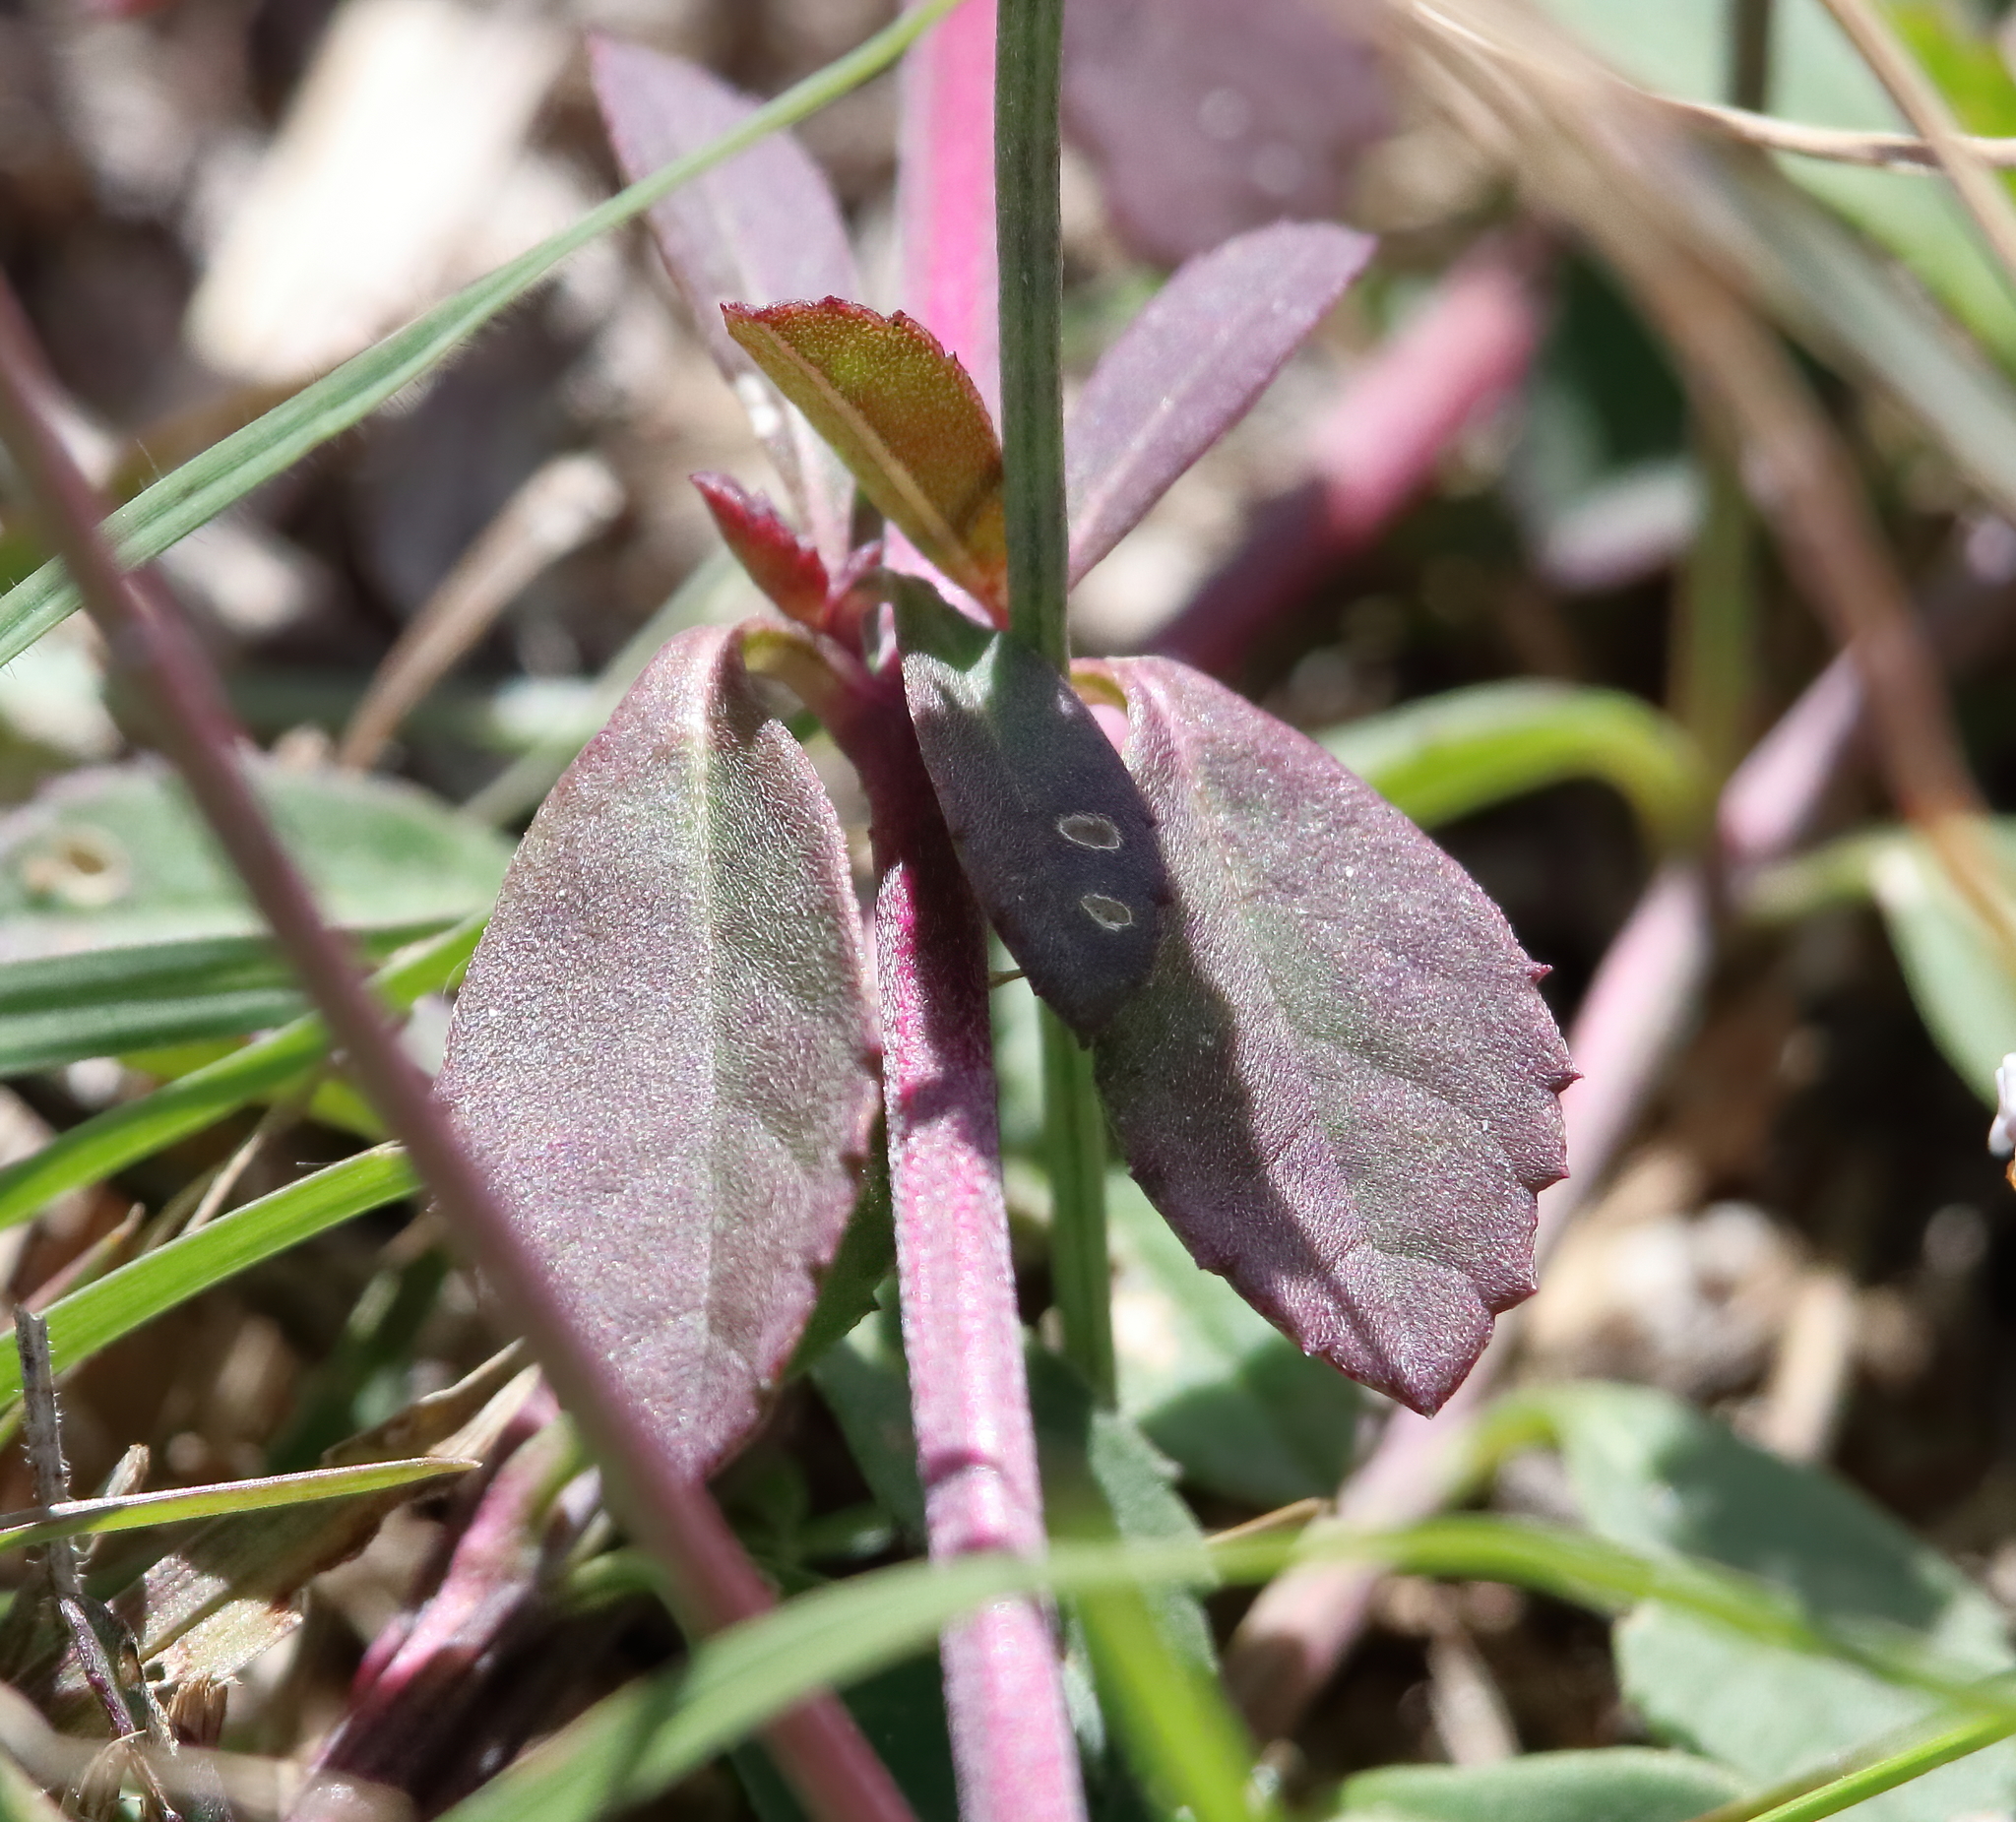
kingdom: Plantae
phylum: Tracheophyta
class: Magnoliopsida
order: Lamiales
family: Verbenaceae
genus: Phyla
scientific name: Phyla nodiflora
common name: Frogfruit
